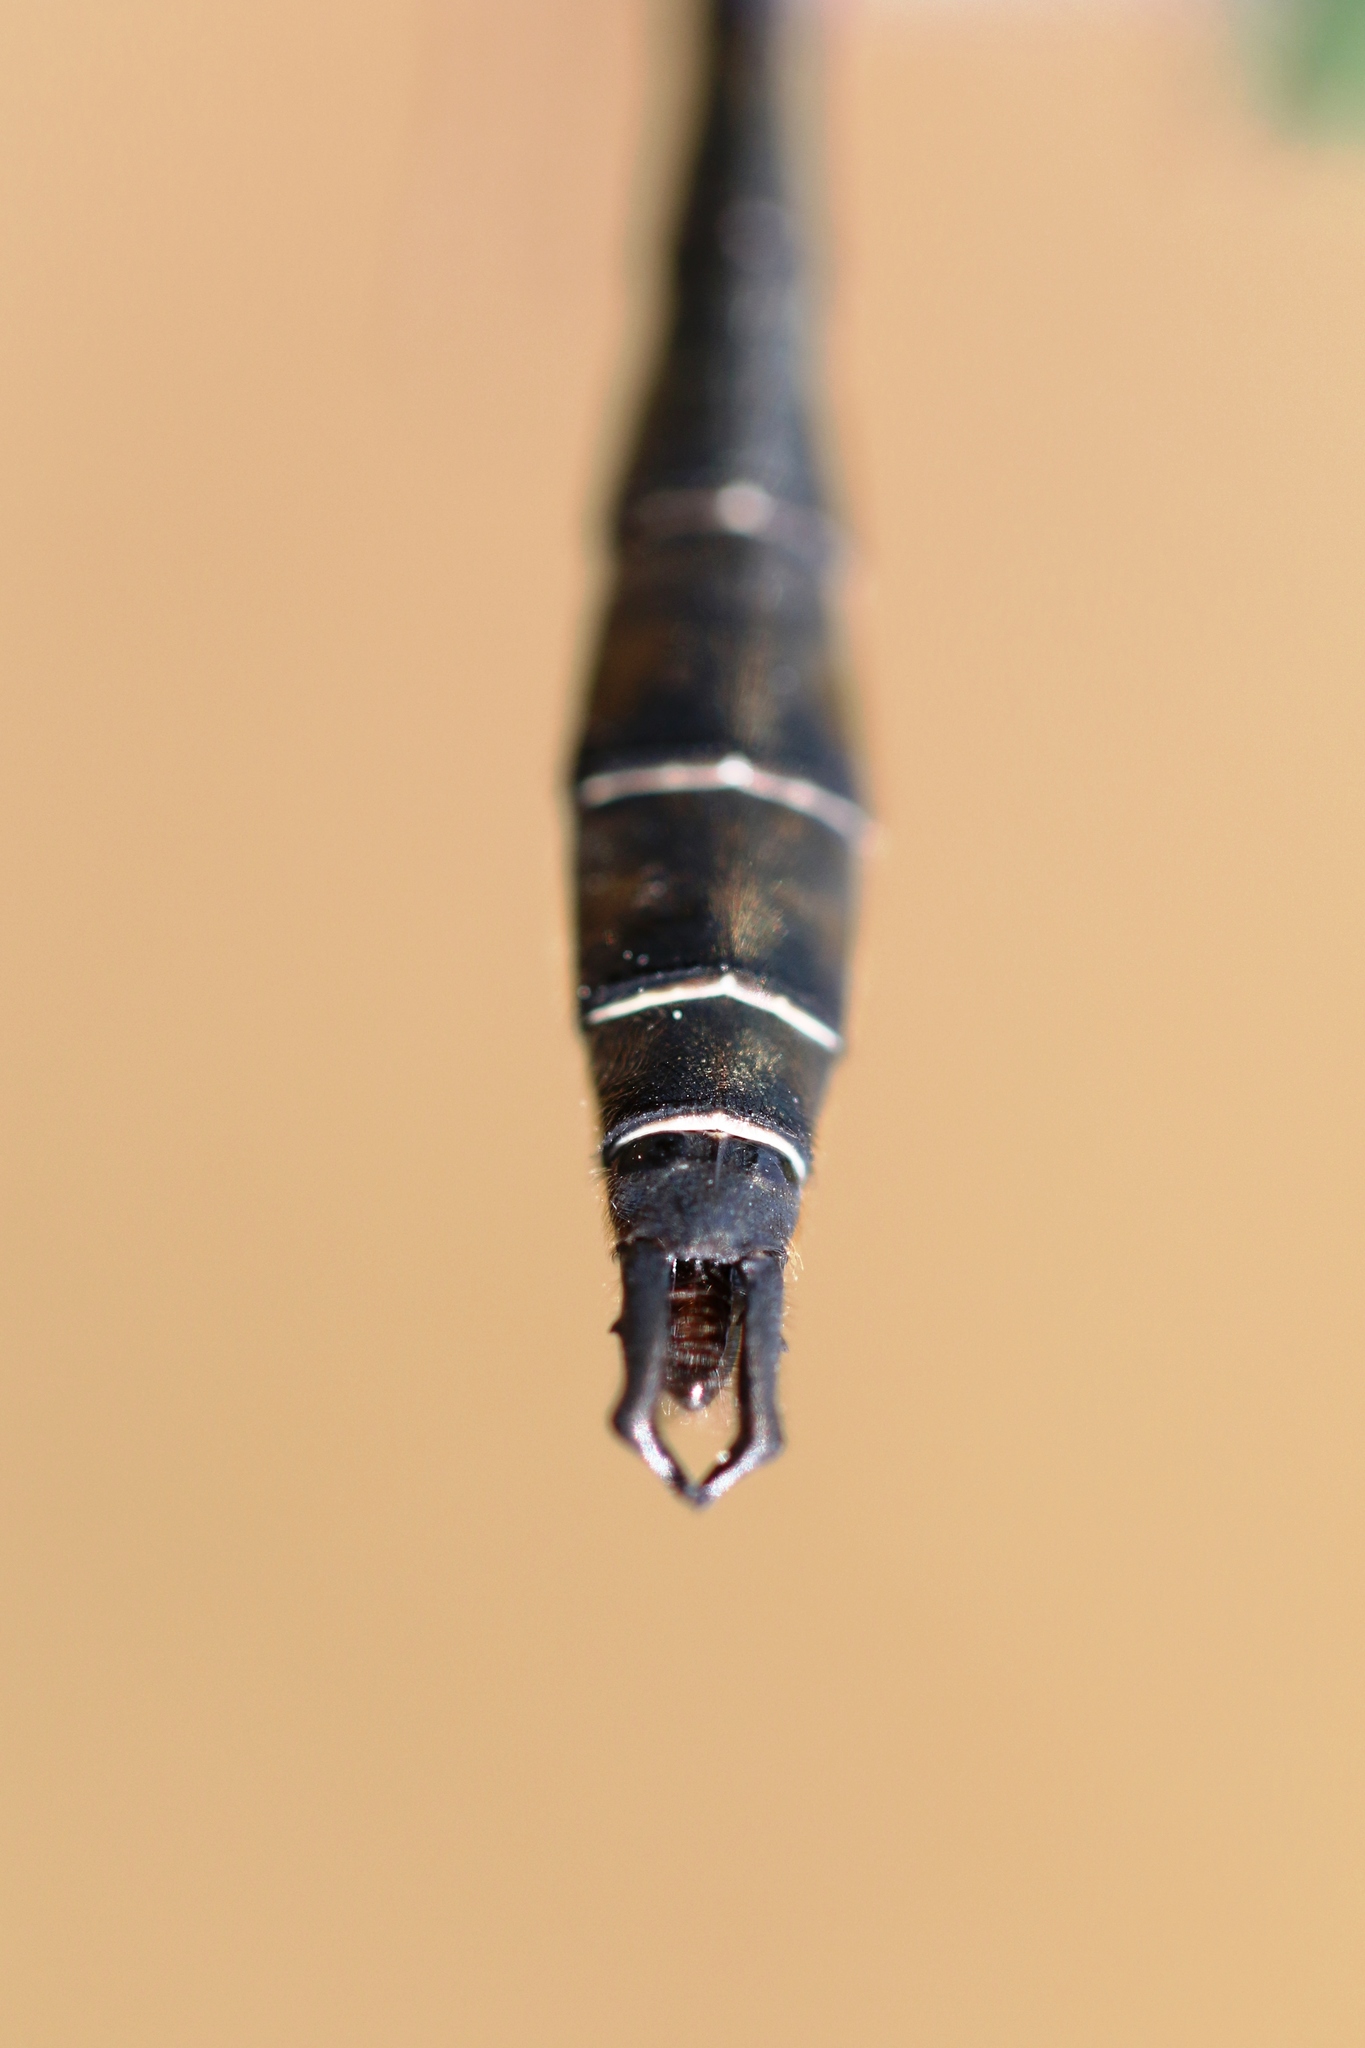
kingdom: Animalia
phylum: Arthropoda
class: Insecta
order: Odonata
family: Corduliidae
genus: Somatochlora
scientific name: Somatochlora septentrionalis
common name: Muskeg emerald
